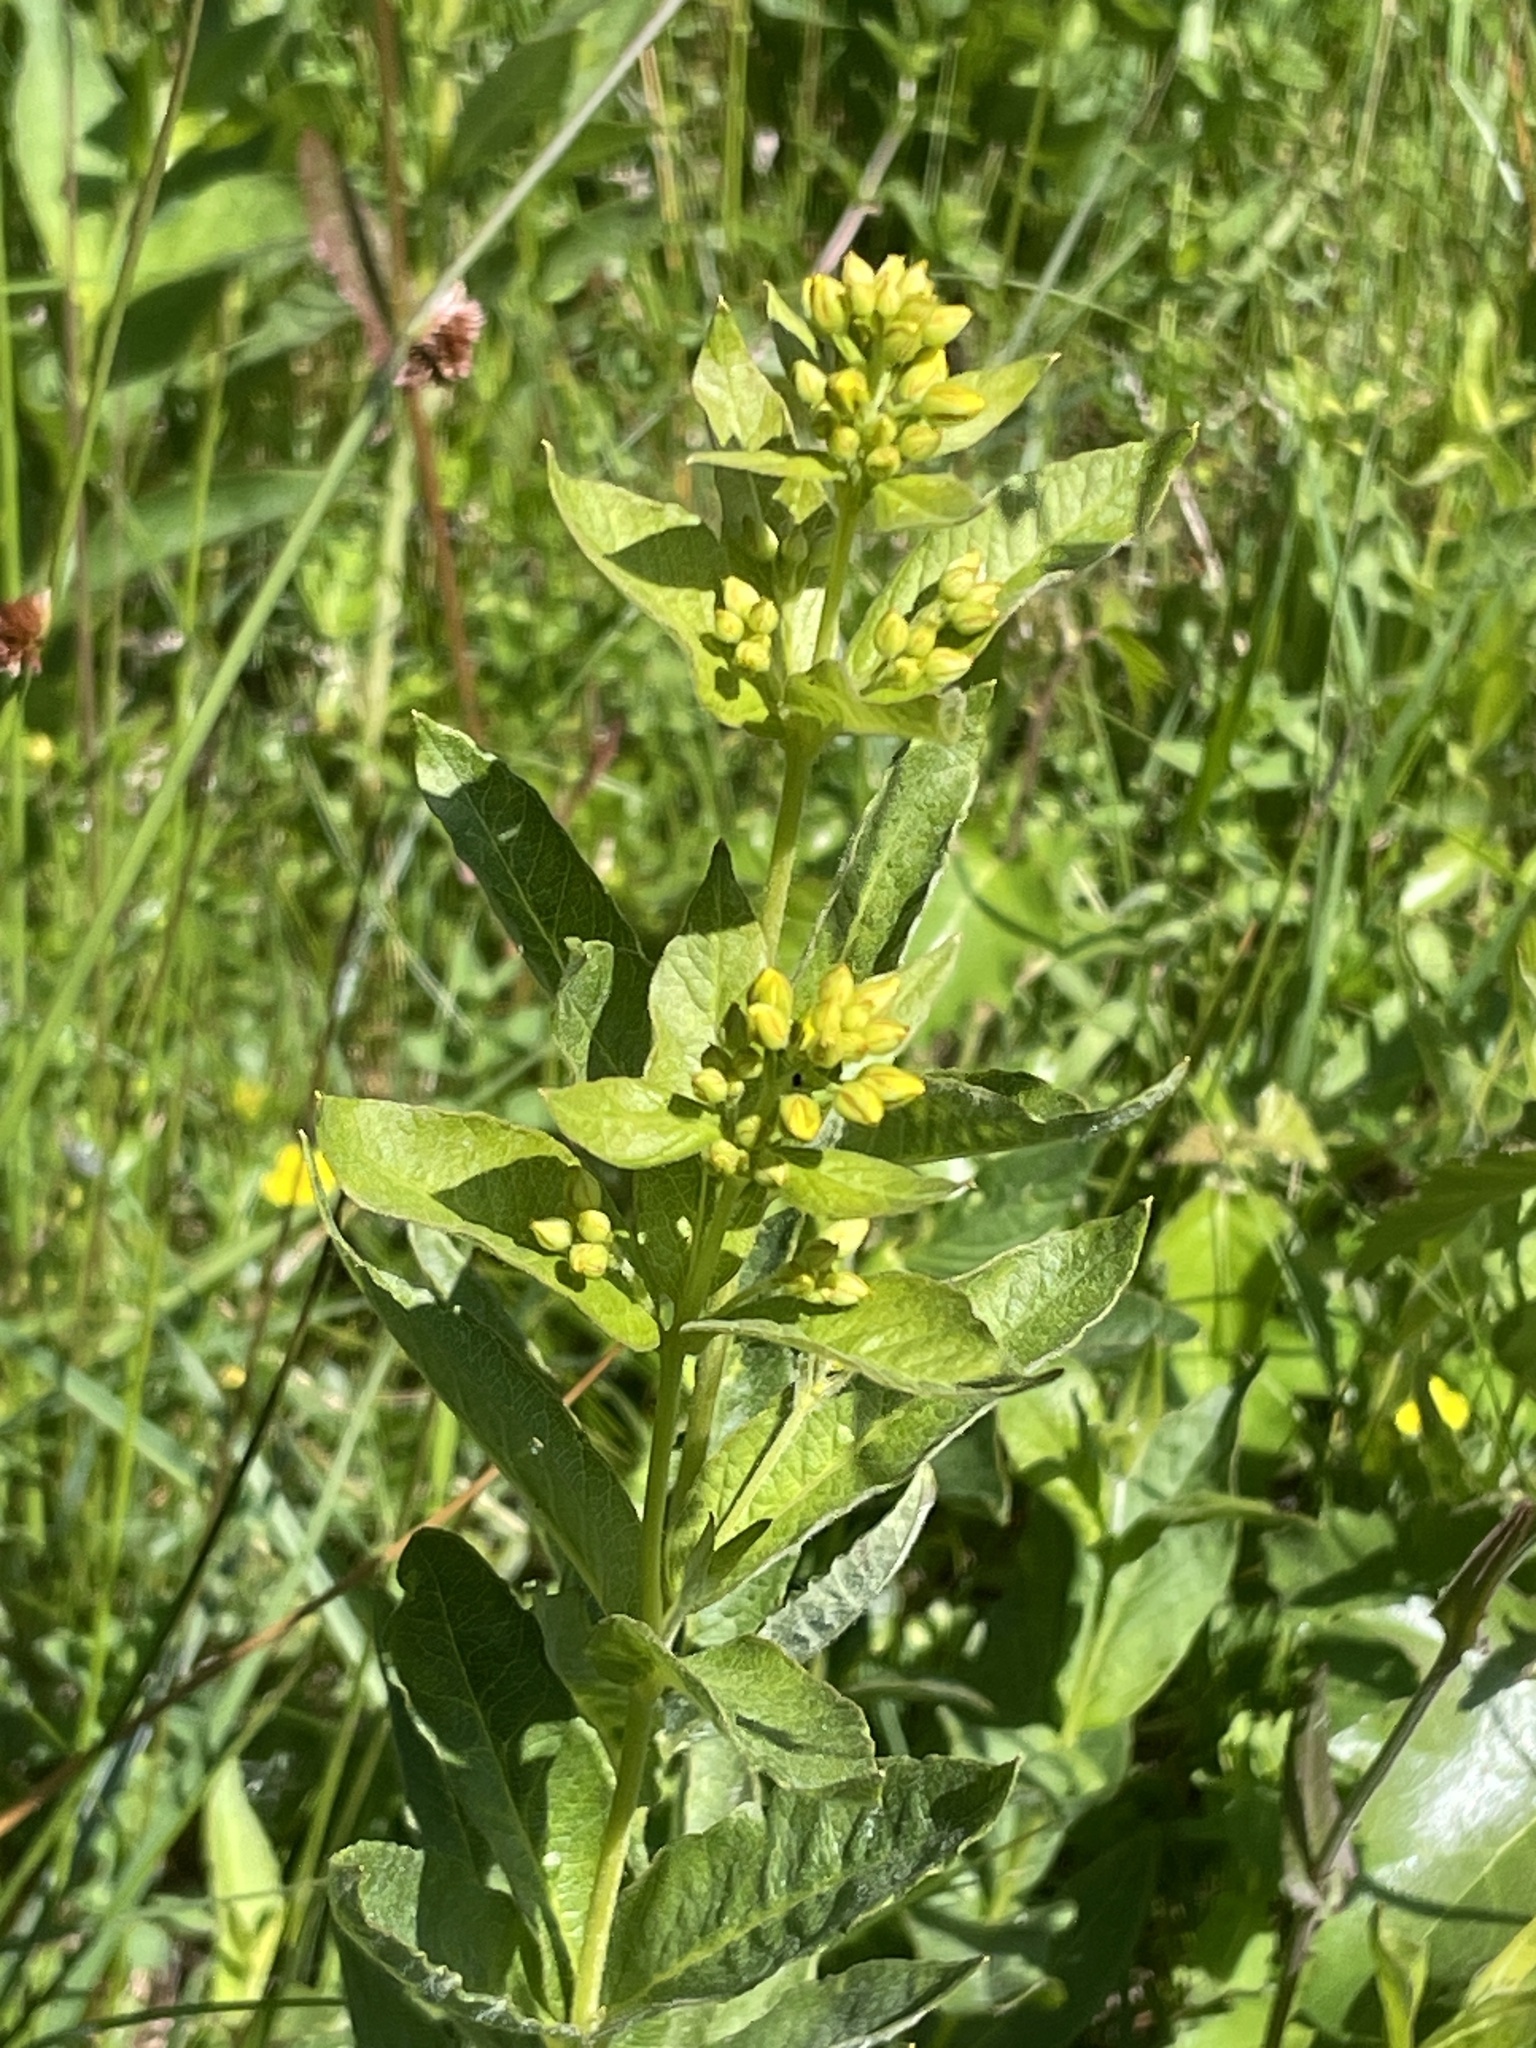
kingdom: Plantae
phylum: Tracheophyta
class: Magnoliopsida
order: Ericales
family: Primulaceae
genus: Lysimachia
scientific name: Lysimachia vulgaris
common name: Yellow loosestrife
